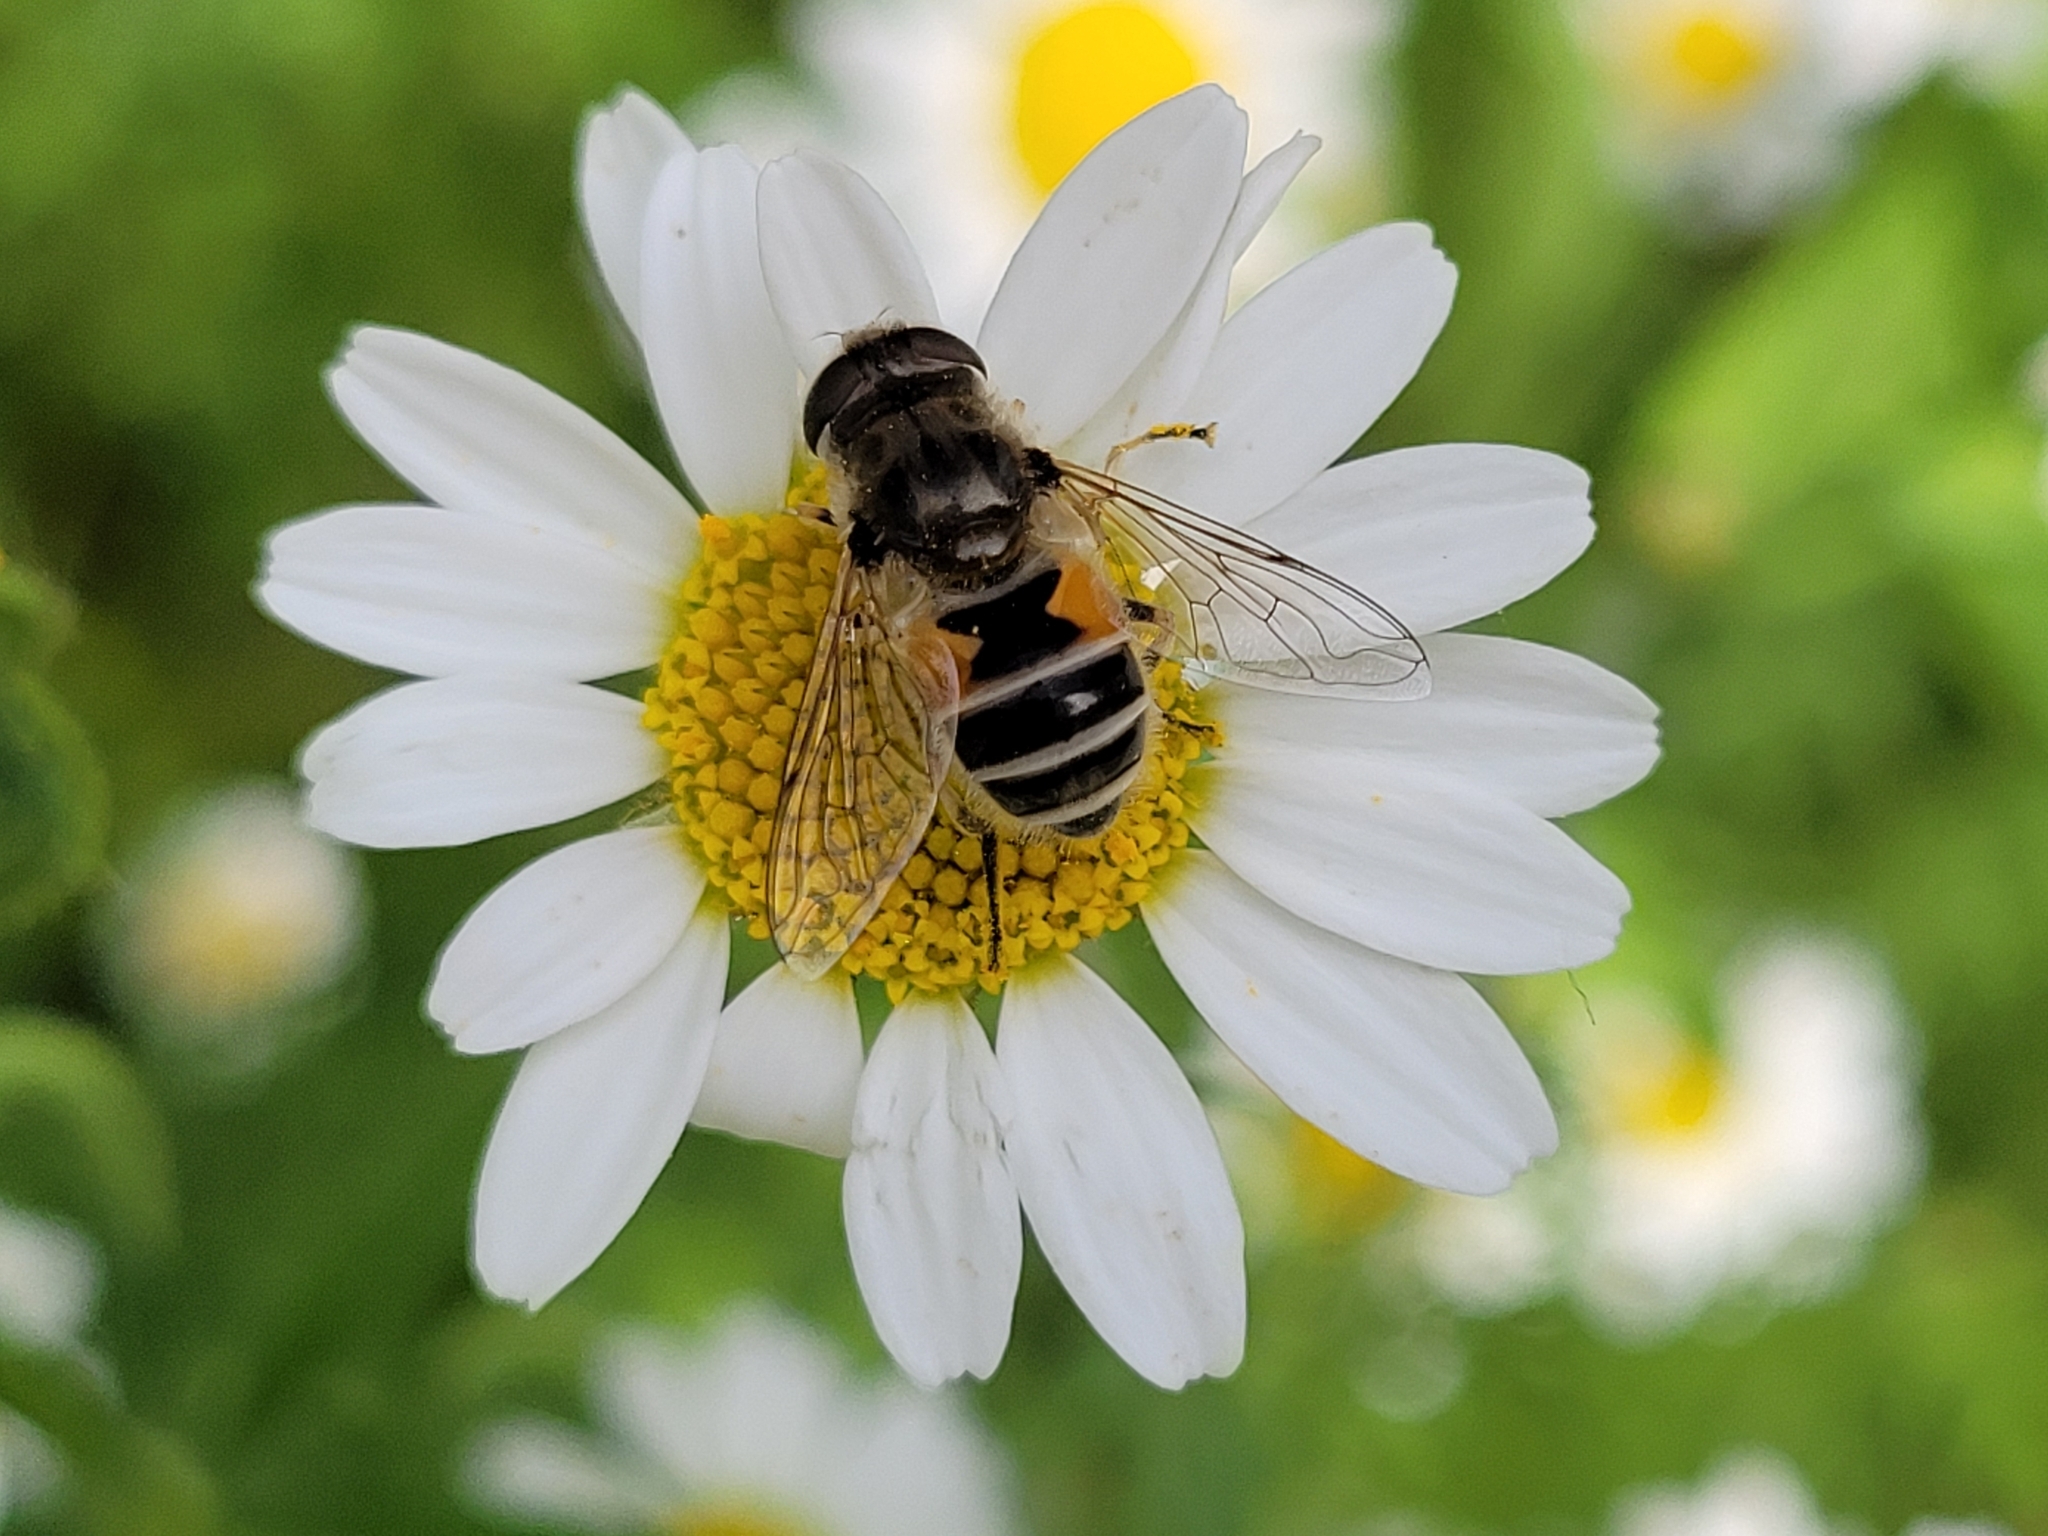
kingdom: Animalia
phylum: Arthropoda
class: Insecta
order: Diptera
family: Syrphidae
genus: Eristalis
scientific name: Eristalis arbustorum
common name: Hover fly
